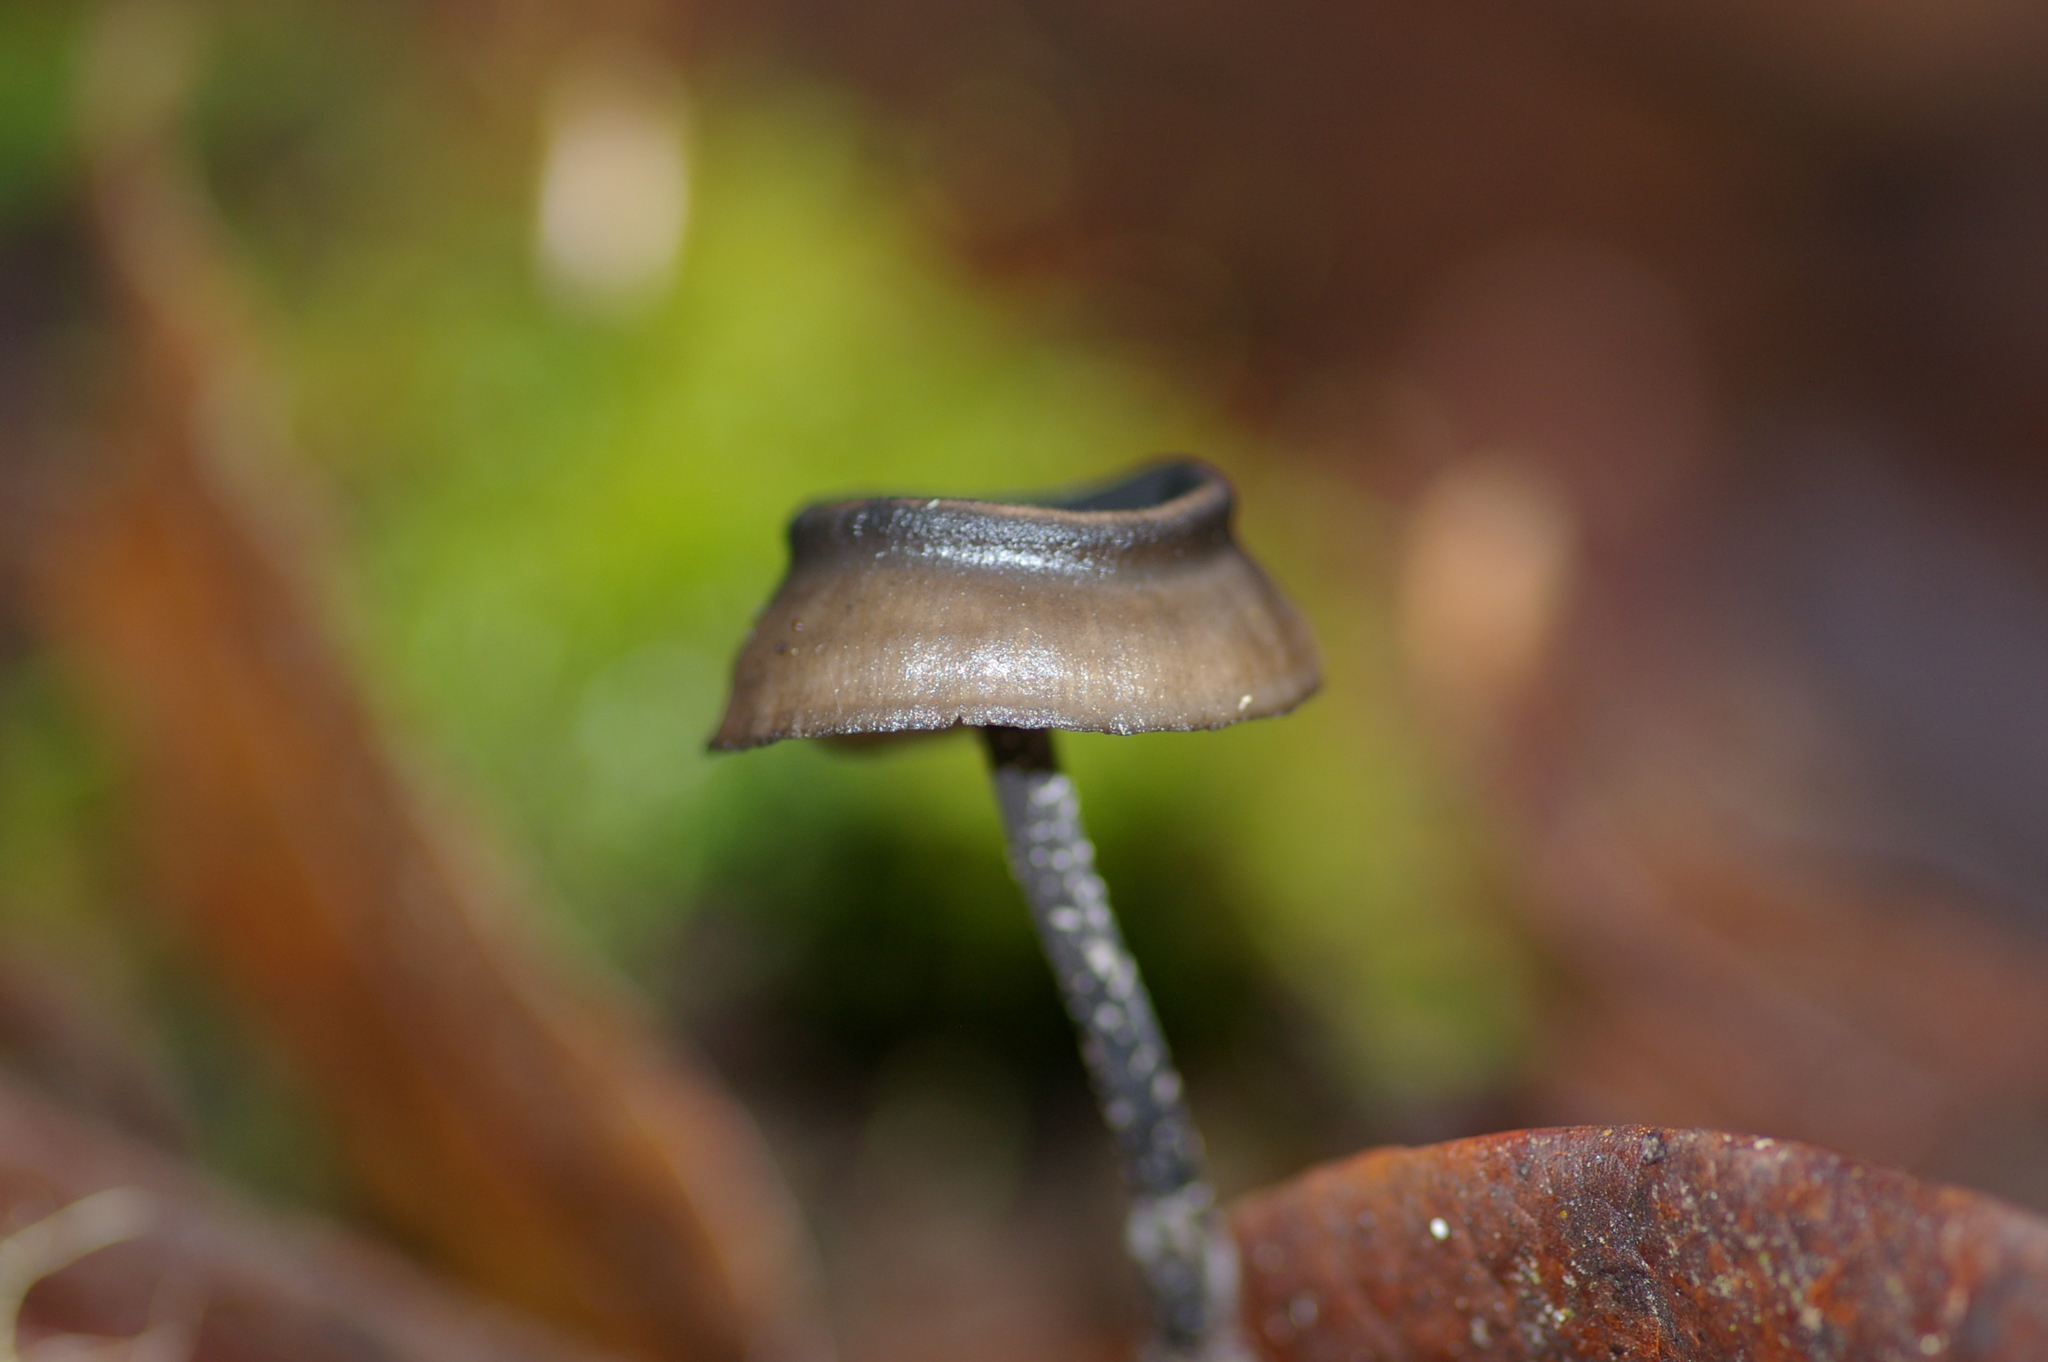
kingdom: Fungi
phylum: Basidiomycota
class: Agaricomycetes
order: Agaricales
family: Lyophyllaceae
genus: Blastosporella
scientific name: Blastosporella zonata
